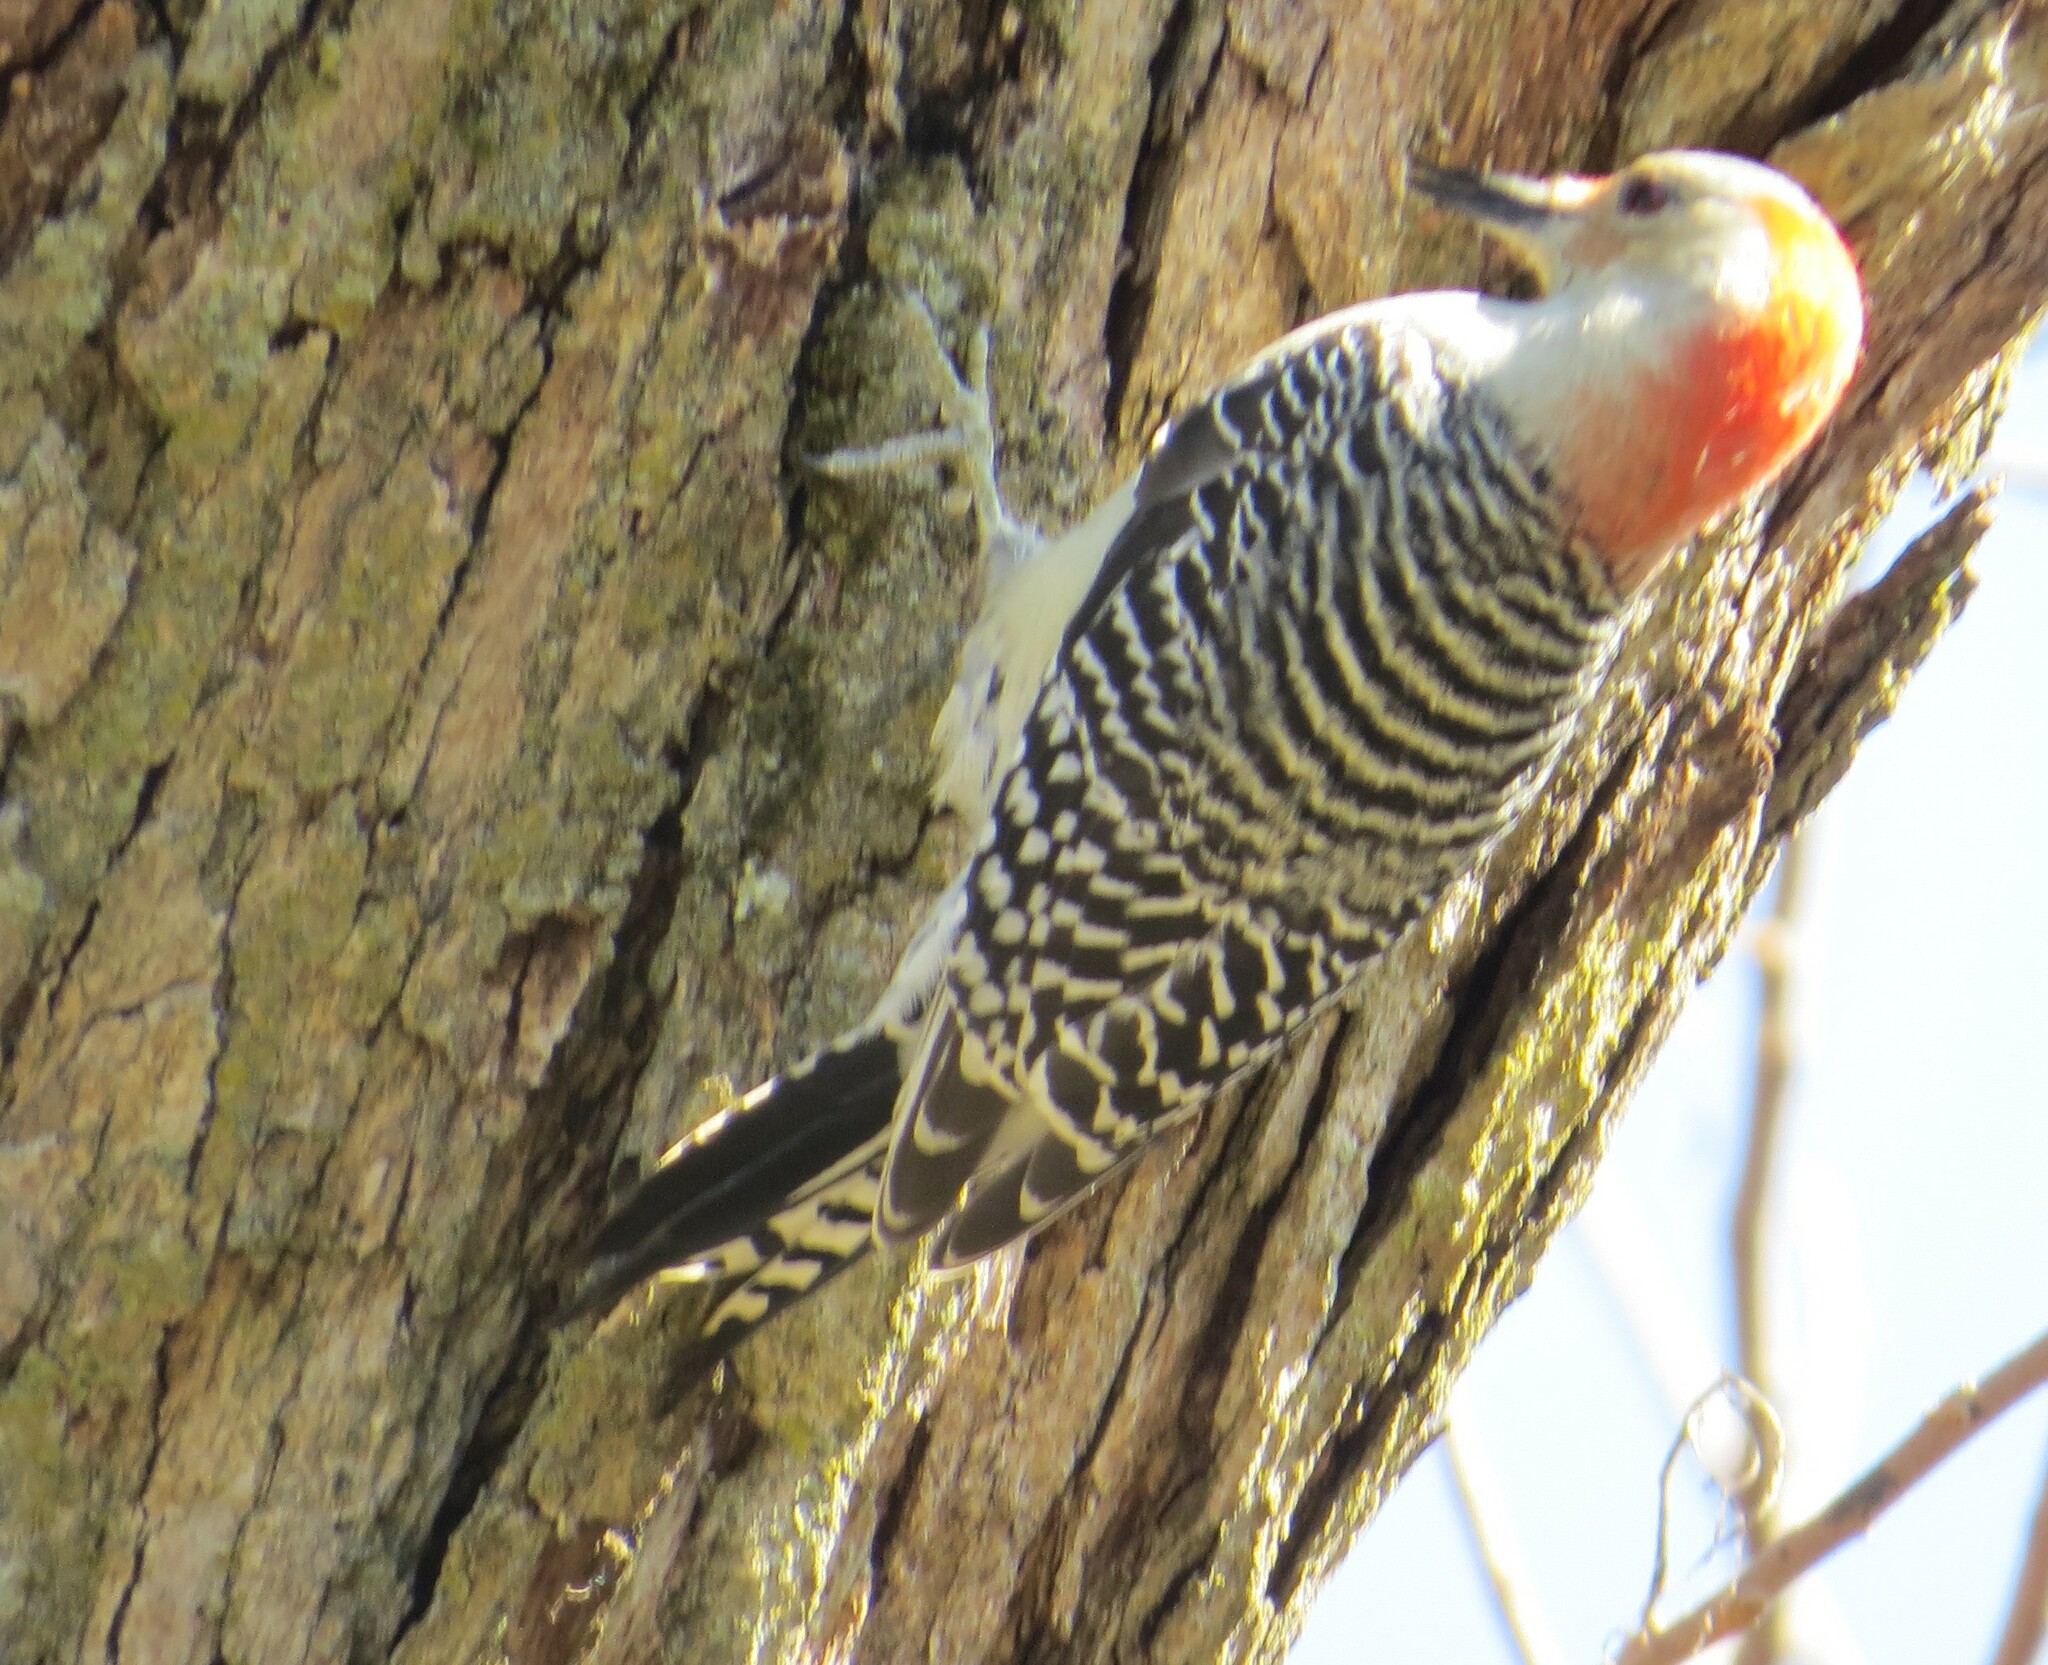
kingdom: Animalia
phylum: Chordata
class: Aves
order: Piciformes
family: Picidae
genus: Melanerpes
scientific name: Melanerpes carolinus
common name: Red-bellied woodpecker
